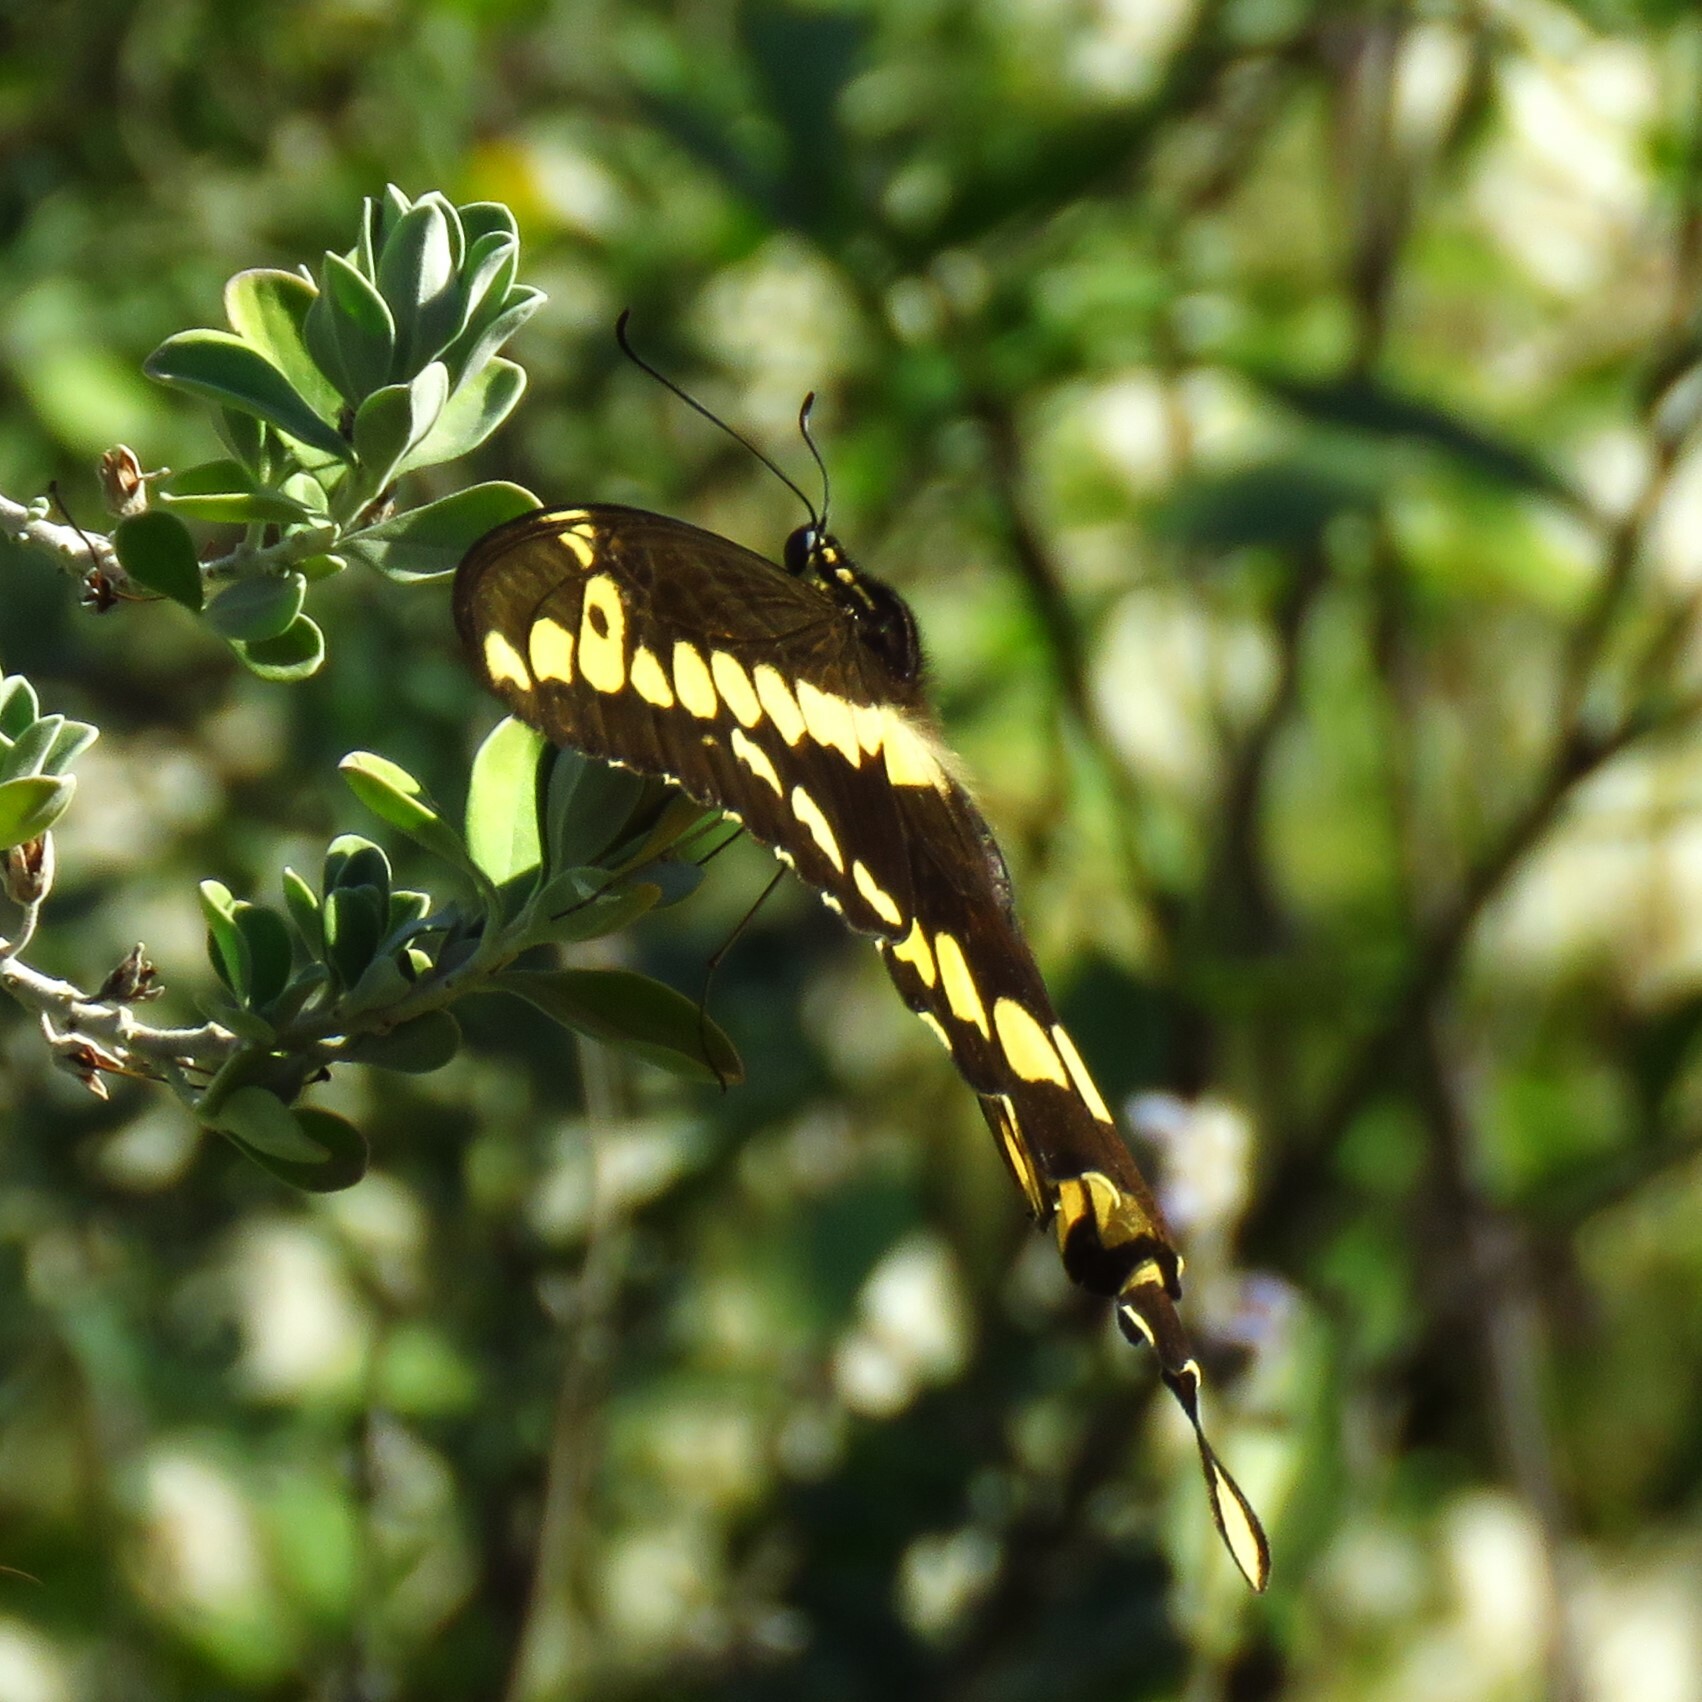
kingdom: Animalia
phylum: Arthropoda
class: Insecta
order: Lepidoptera
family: Papilionidae
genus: Papilio
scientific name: Papilio cresphontes
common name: Giant swallowtail
